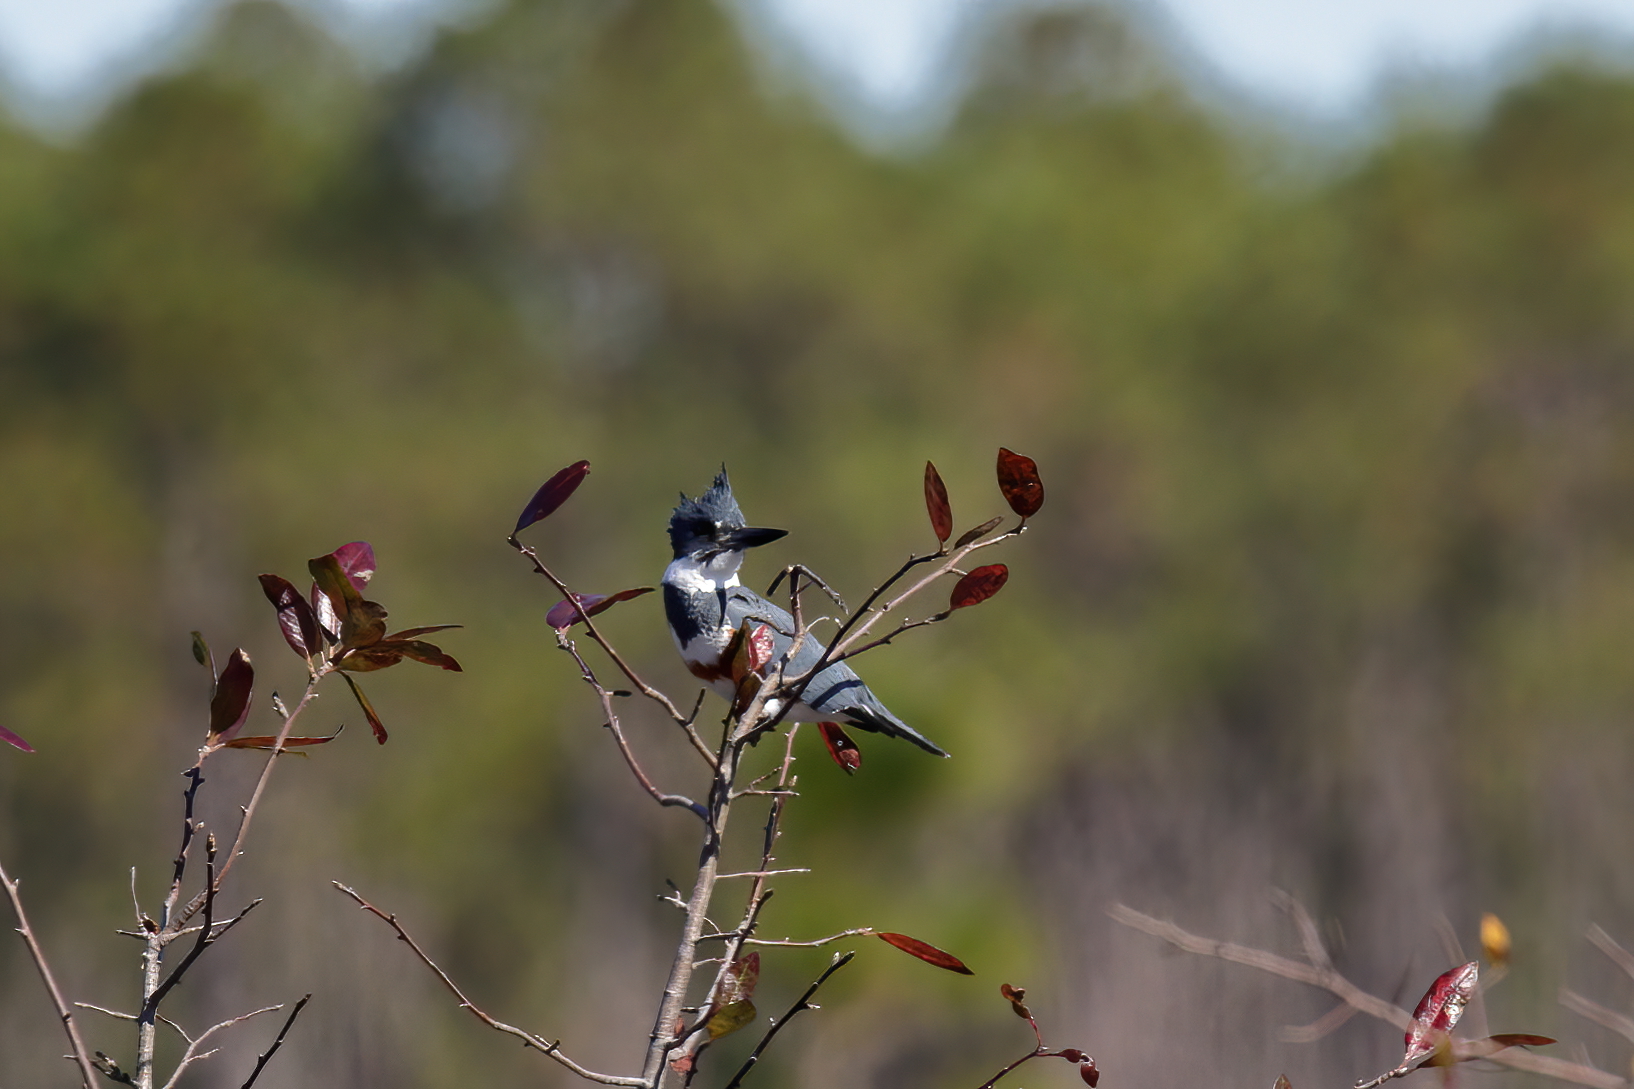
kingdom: Animalia
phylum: Chordata
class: Aves
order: Coraciiformes
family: Alcedinidae
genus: Megaceryle
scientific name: Megaceryle alcyon
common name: Belted kingfisher
